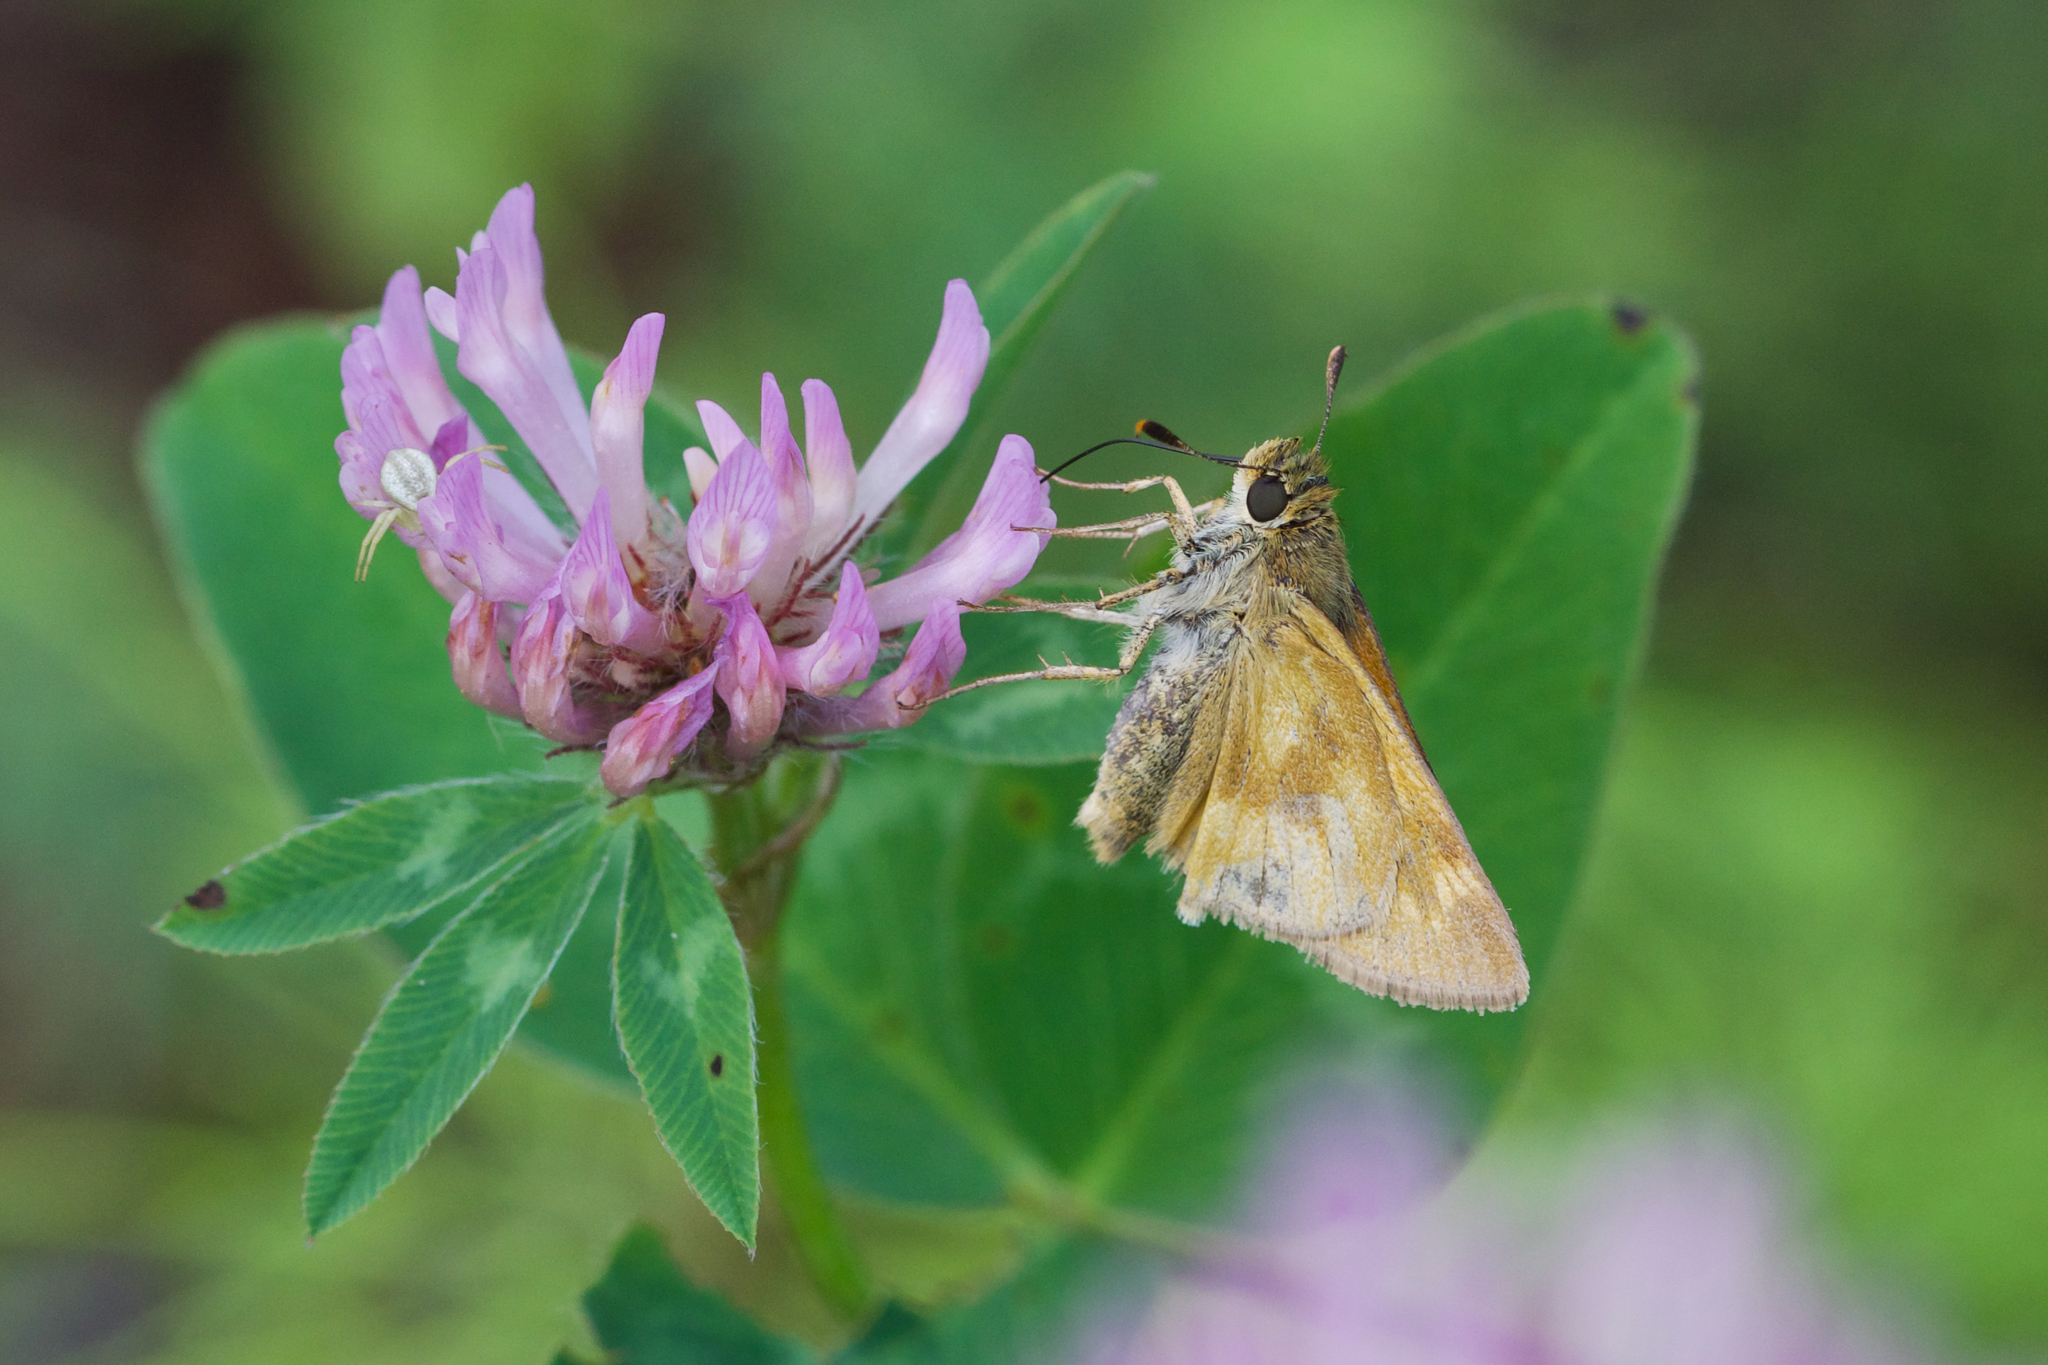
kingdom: Animalia
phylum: Arthropoda
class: Insecta
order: Lepidoptera
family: Hesperiidae
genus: Polites
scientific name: Polites mystic
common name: Long dash
